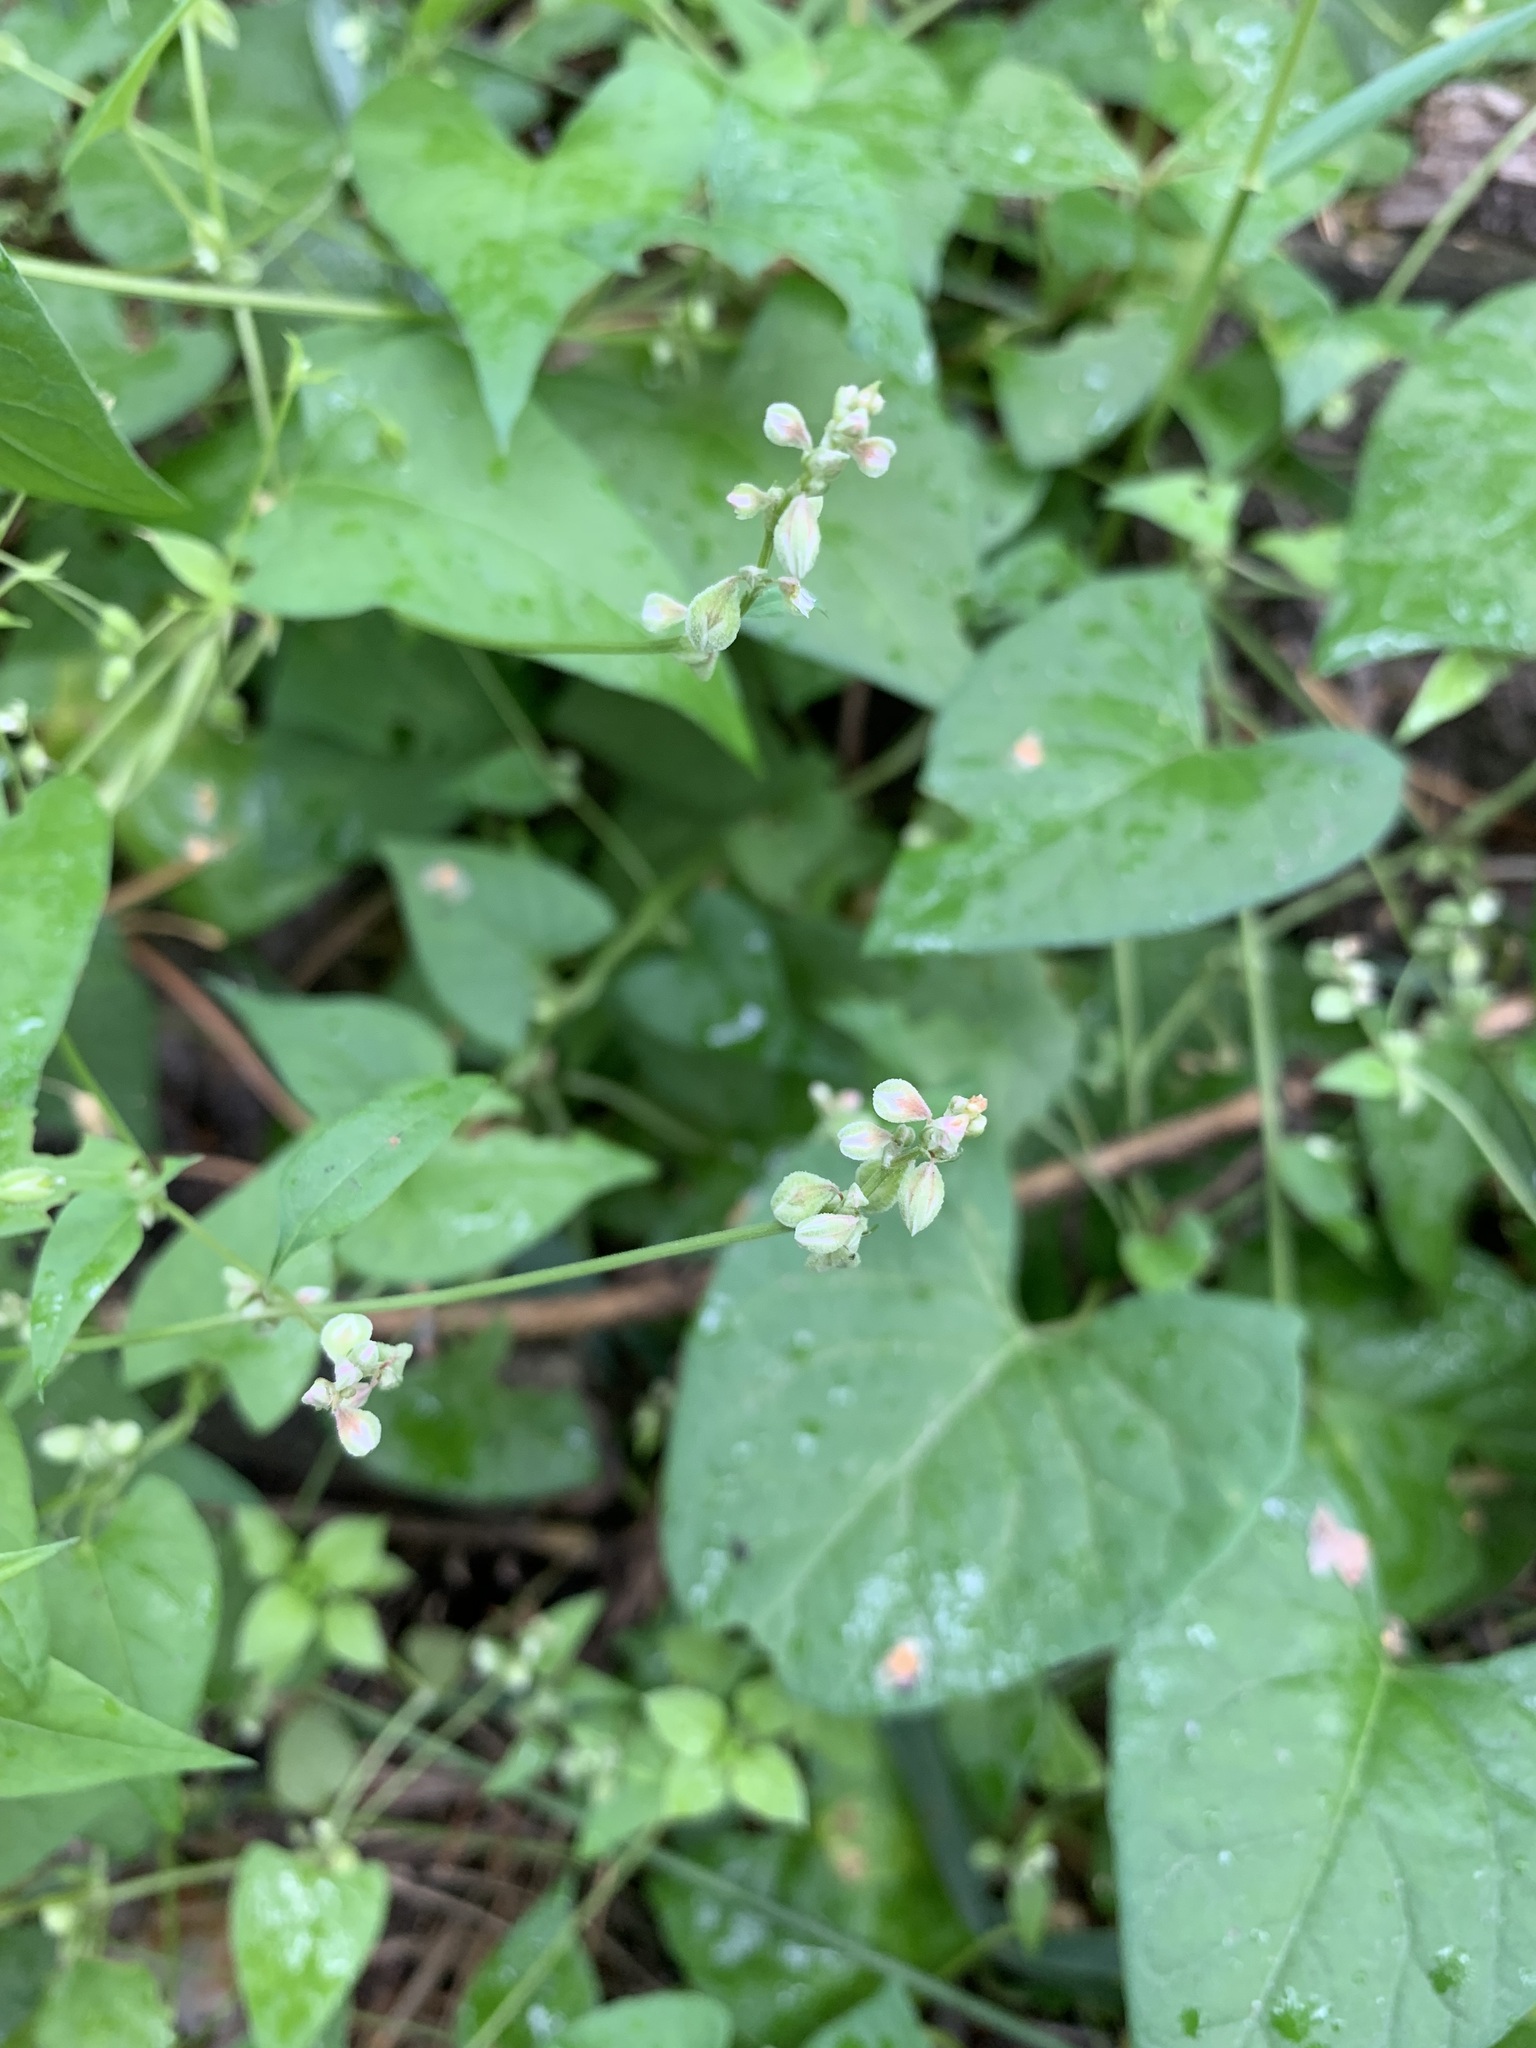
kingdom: Plantae
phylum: Tracheophyta
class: Magnoliopsida
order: Caryophyllales
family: Polygonaceae
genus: Fallopia
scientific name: Fallopia convolvulus
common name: Black bindweed
